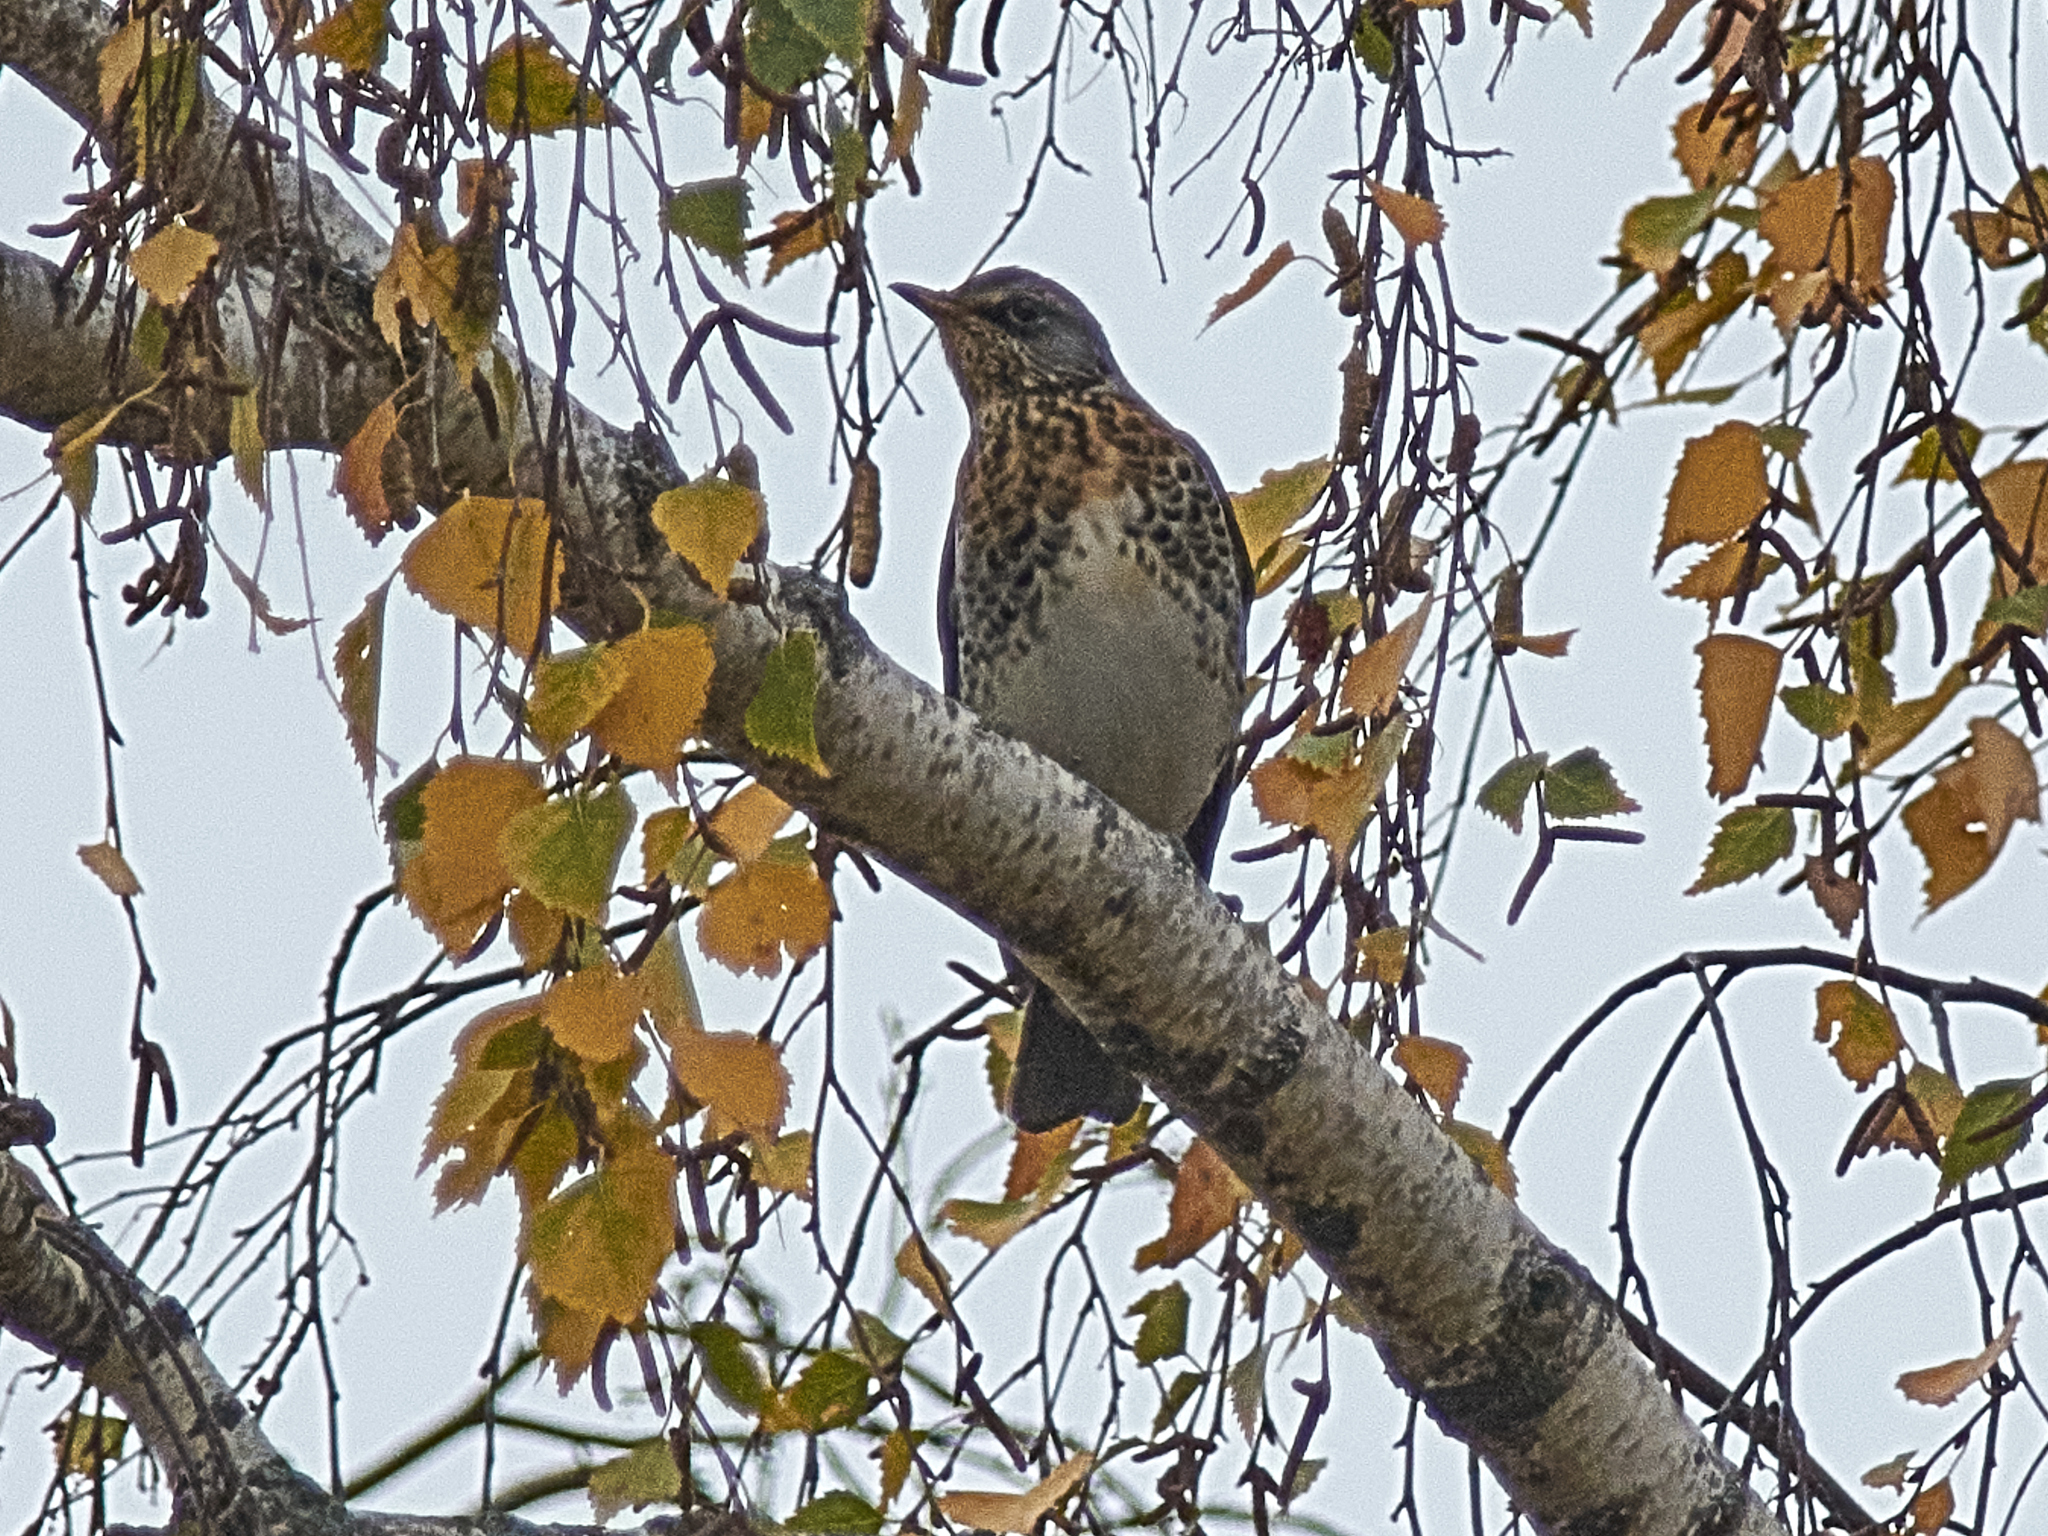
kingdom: Animalia
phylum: Chordata
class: Aves
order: Passeriformes
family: Turdidae
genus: Turdus
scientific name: Turdus pilaris
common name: Fieldfare
